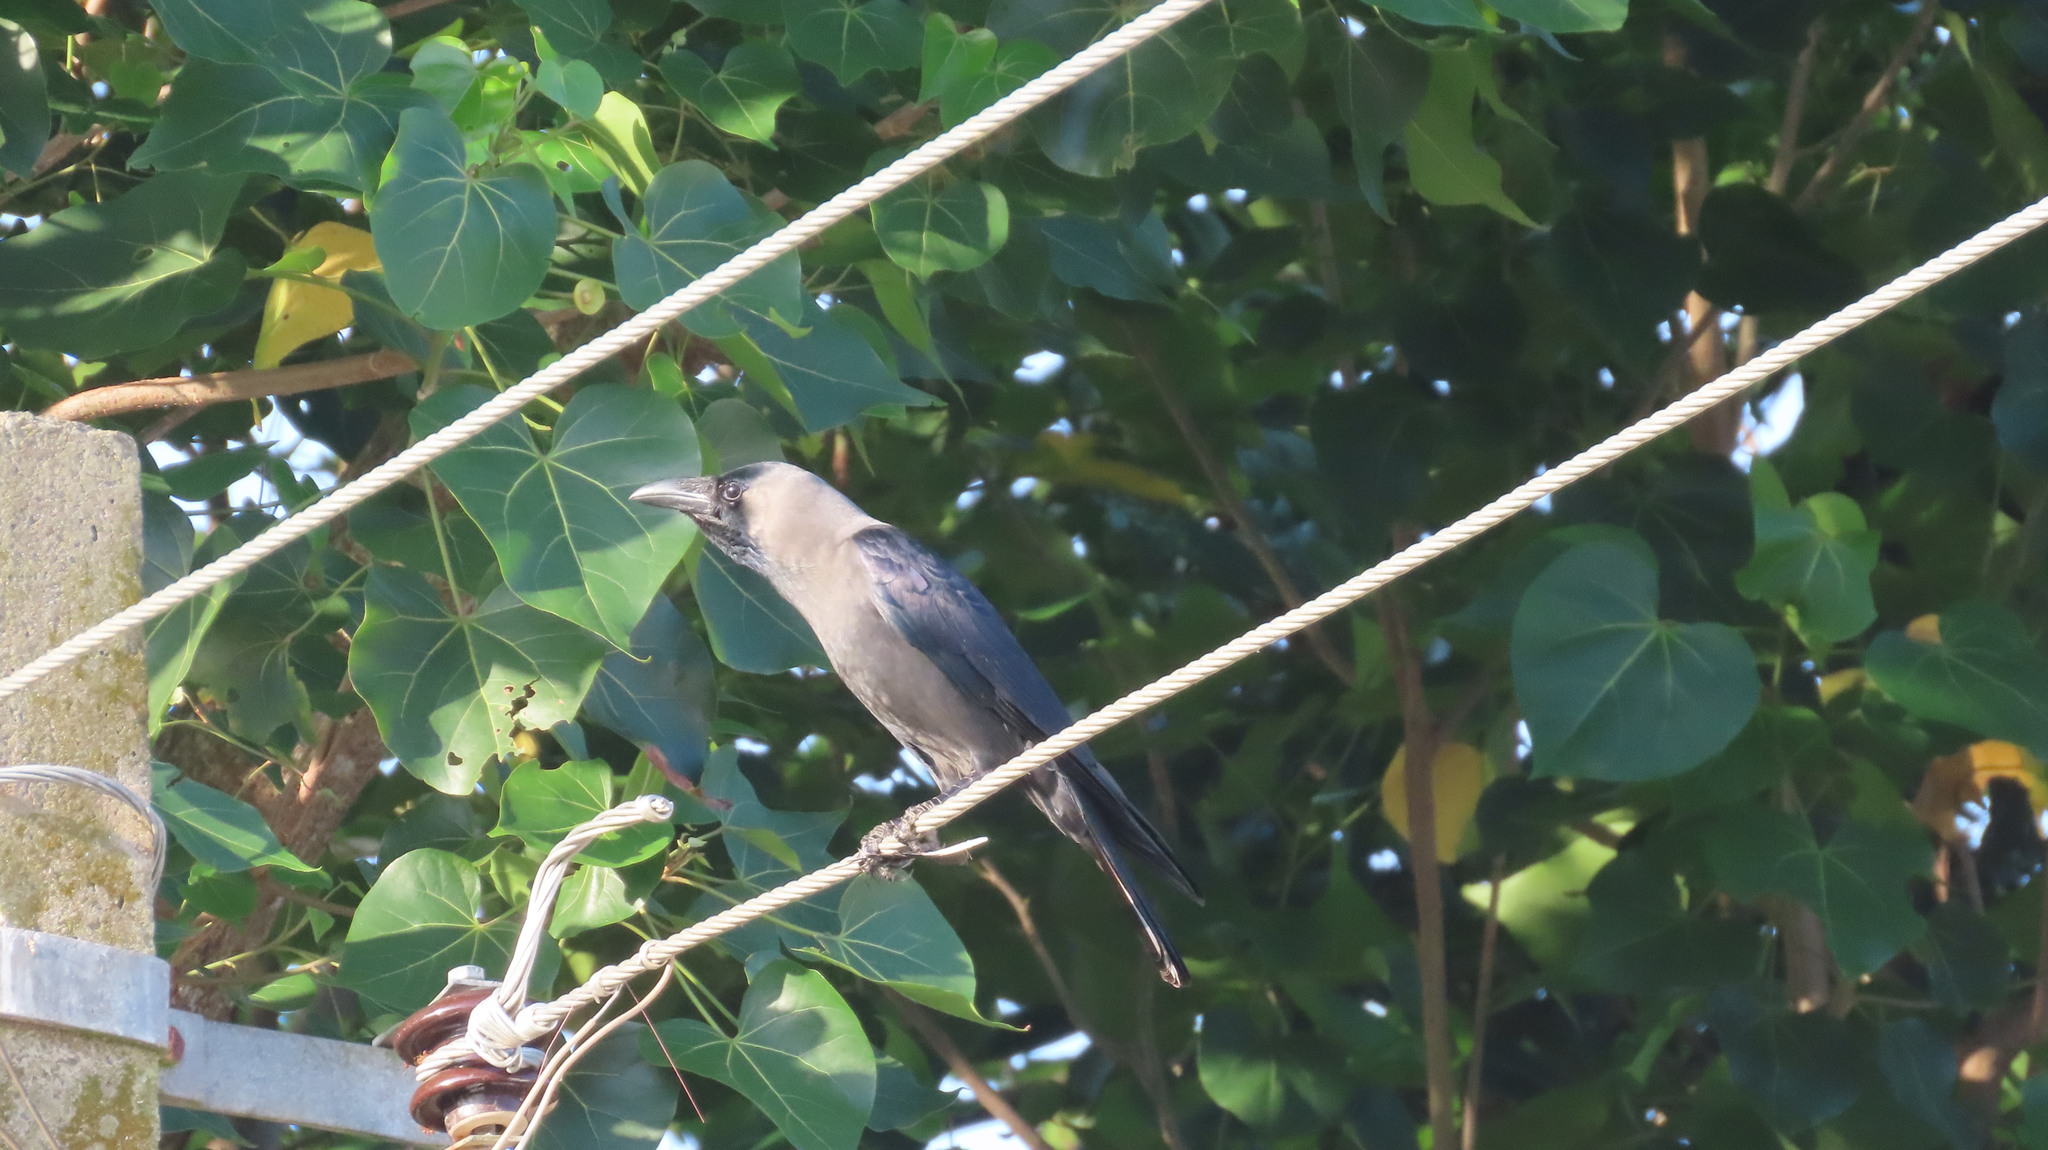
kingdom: Animalia
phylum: Chordata
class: Aves
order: Passeriformes
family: Corvidae
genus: Corvus
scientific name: Corvus splendens
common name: House crow
